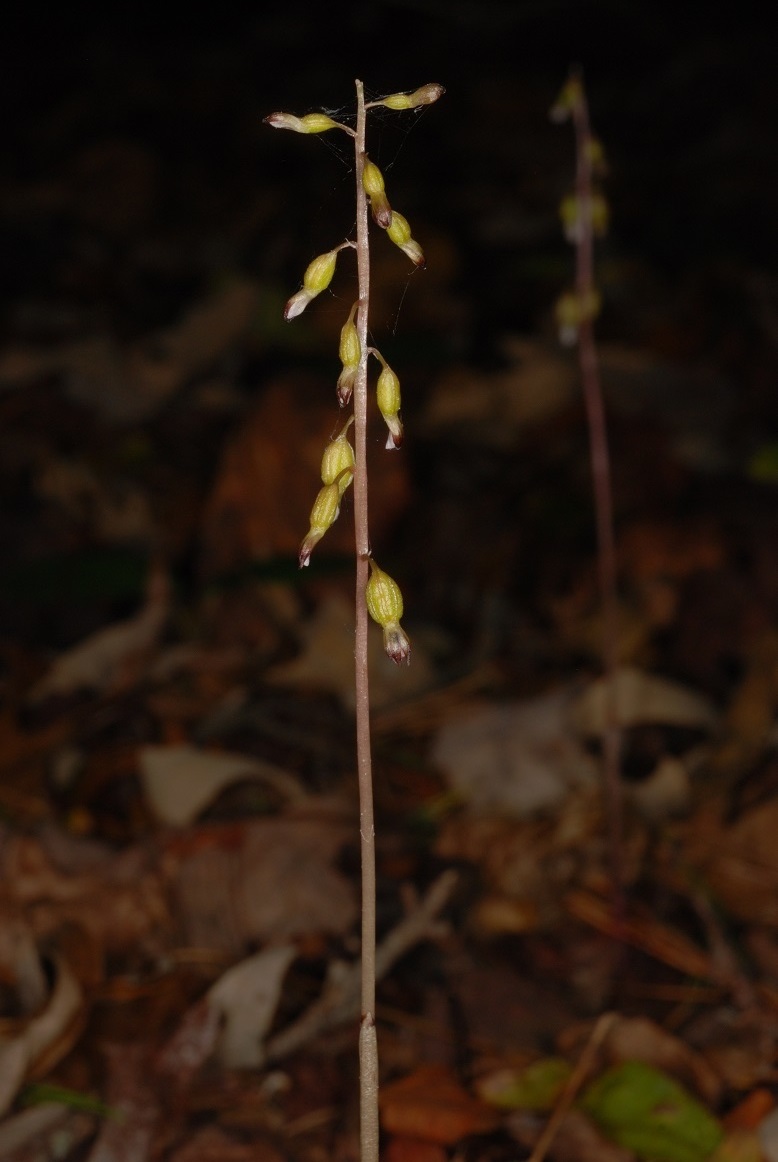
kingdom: Plantae
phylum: Tracheophyta
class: Liliopsida
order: Asparagales
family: Orchidaceae
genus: Corallorhiza
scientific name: Corallorhiza odontorhiza
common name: Autumn coralroot
